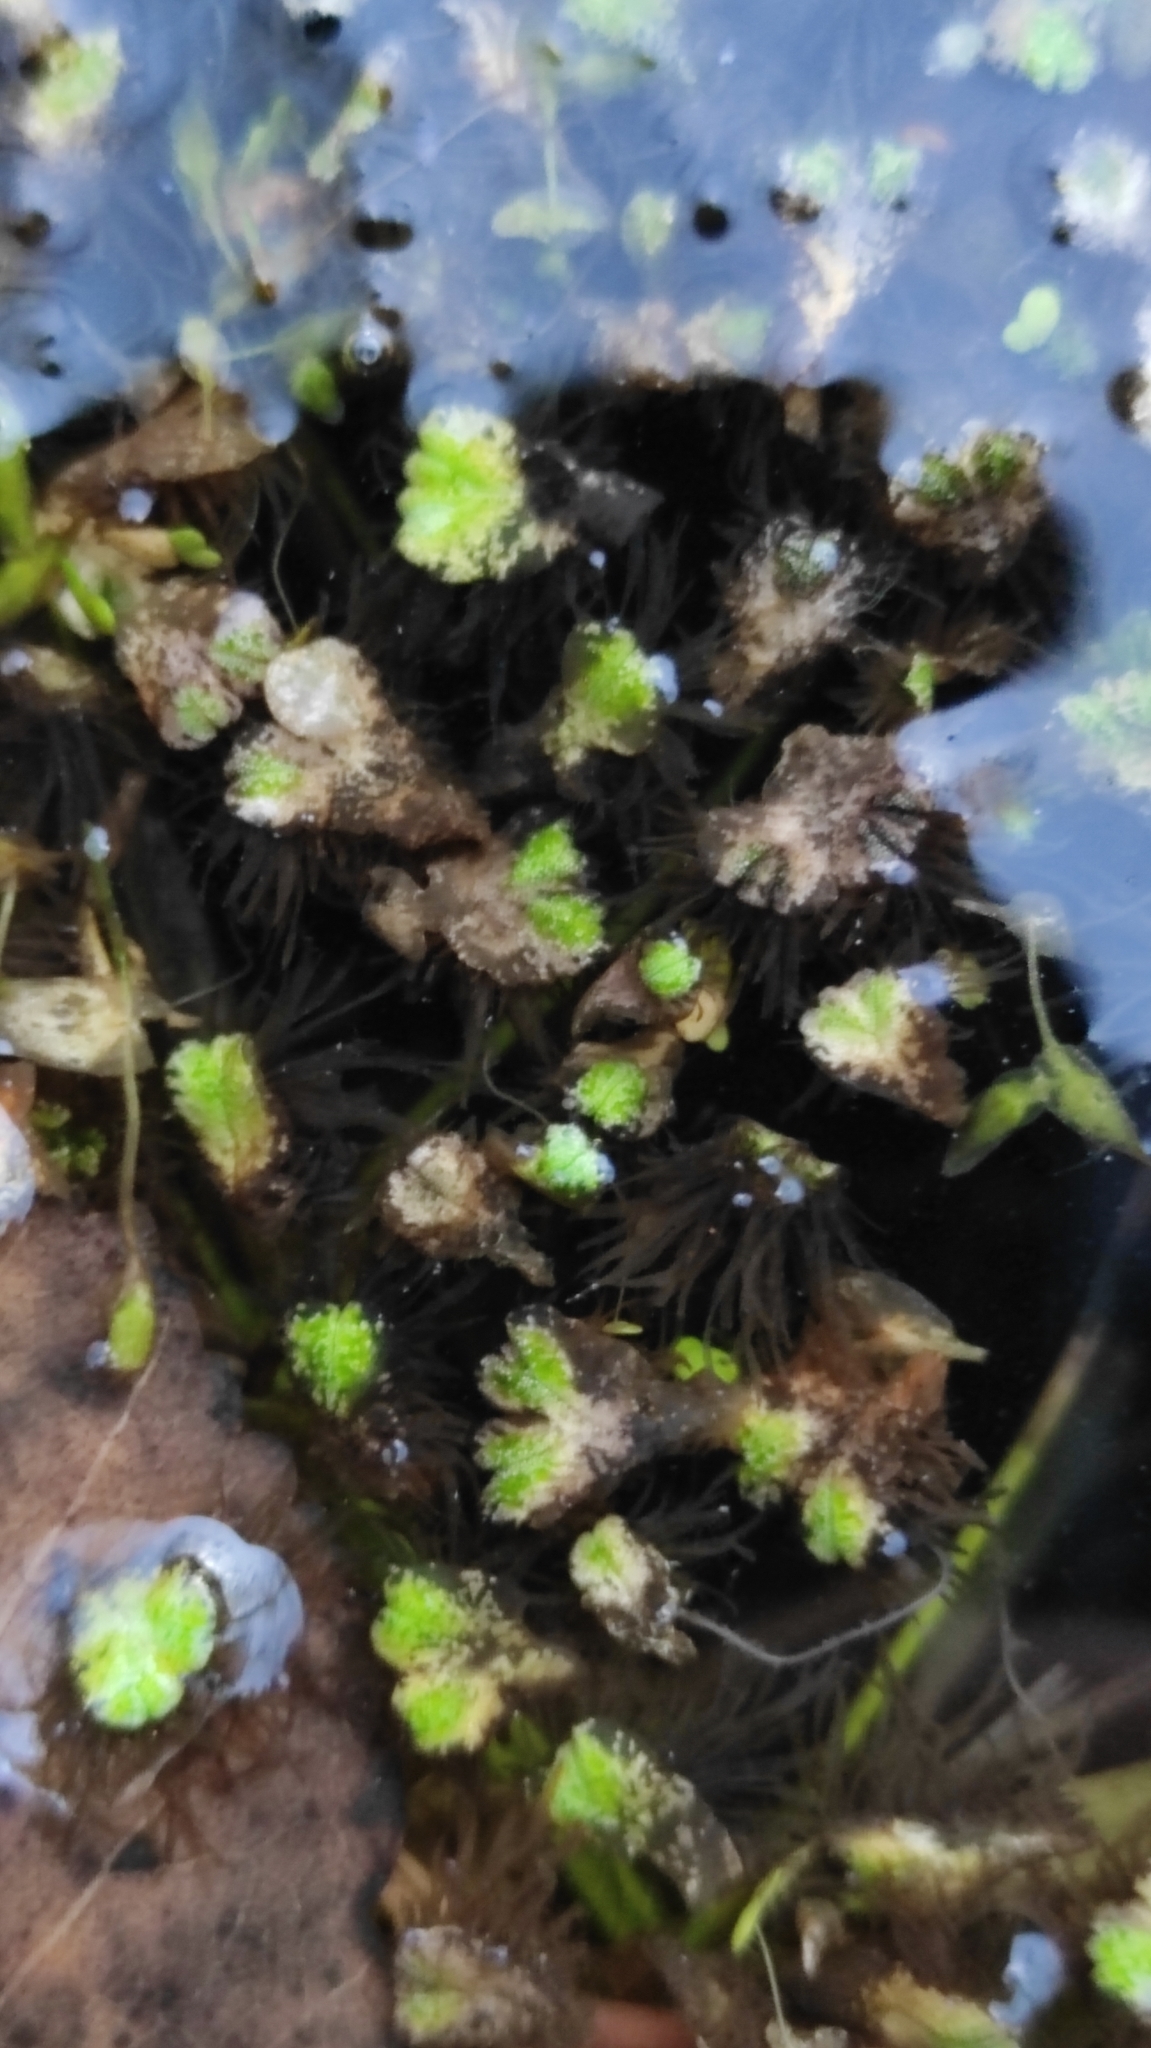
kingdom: Plantae
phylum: Marchantiophyta
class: Marchantiopsida
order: Marchantiales
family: Ricciaceae
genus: Ricciocarpos
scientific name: Ricciocarpos natans
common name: Purple-fringed liverwort
